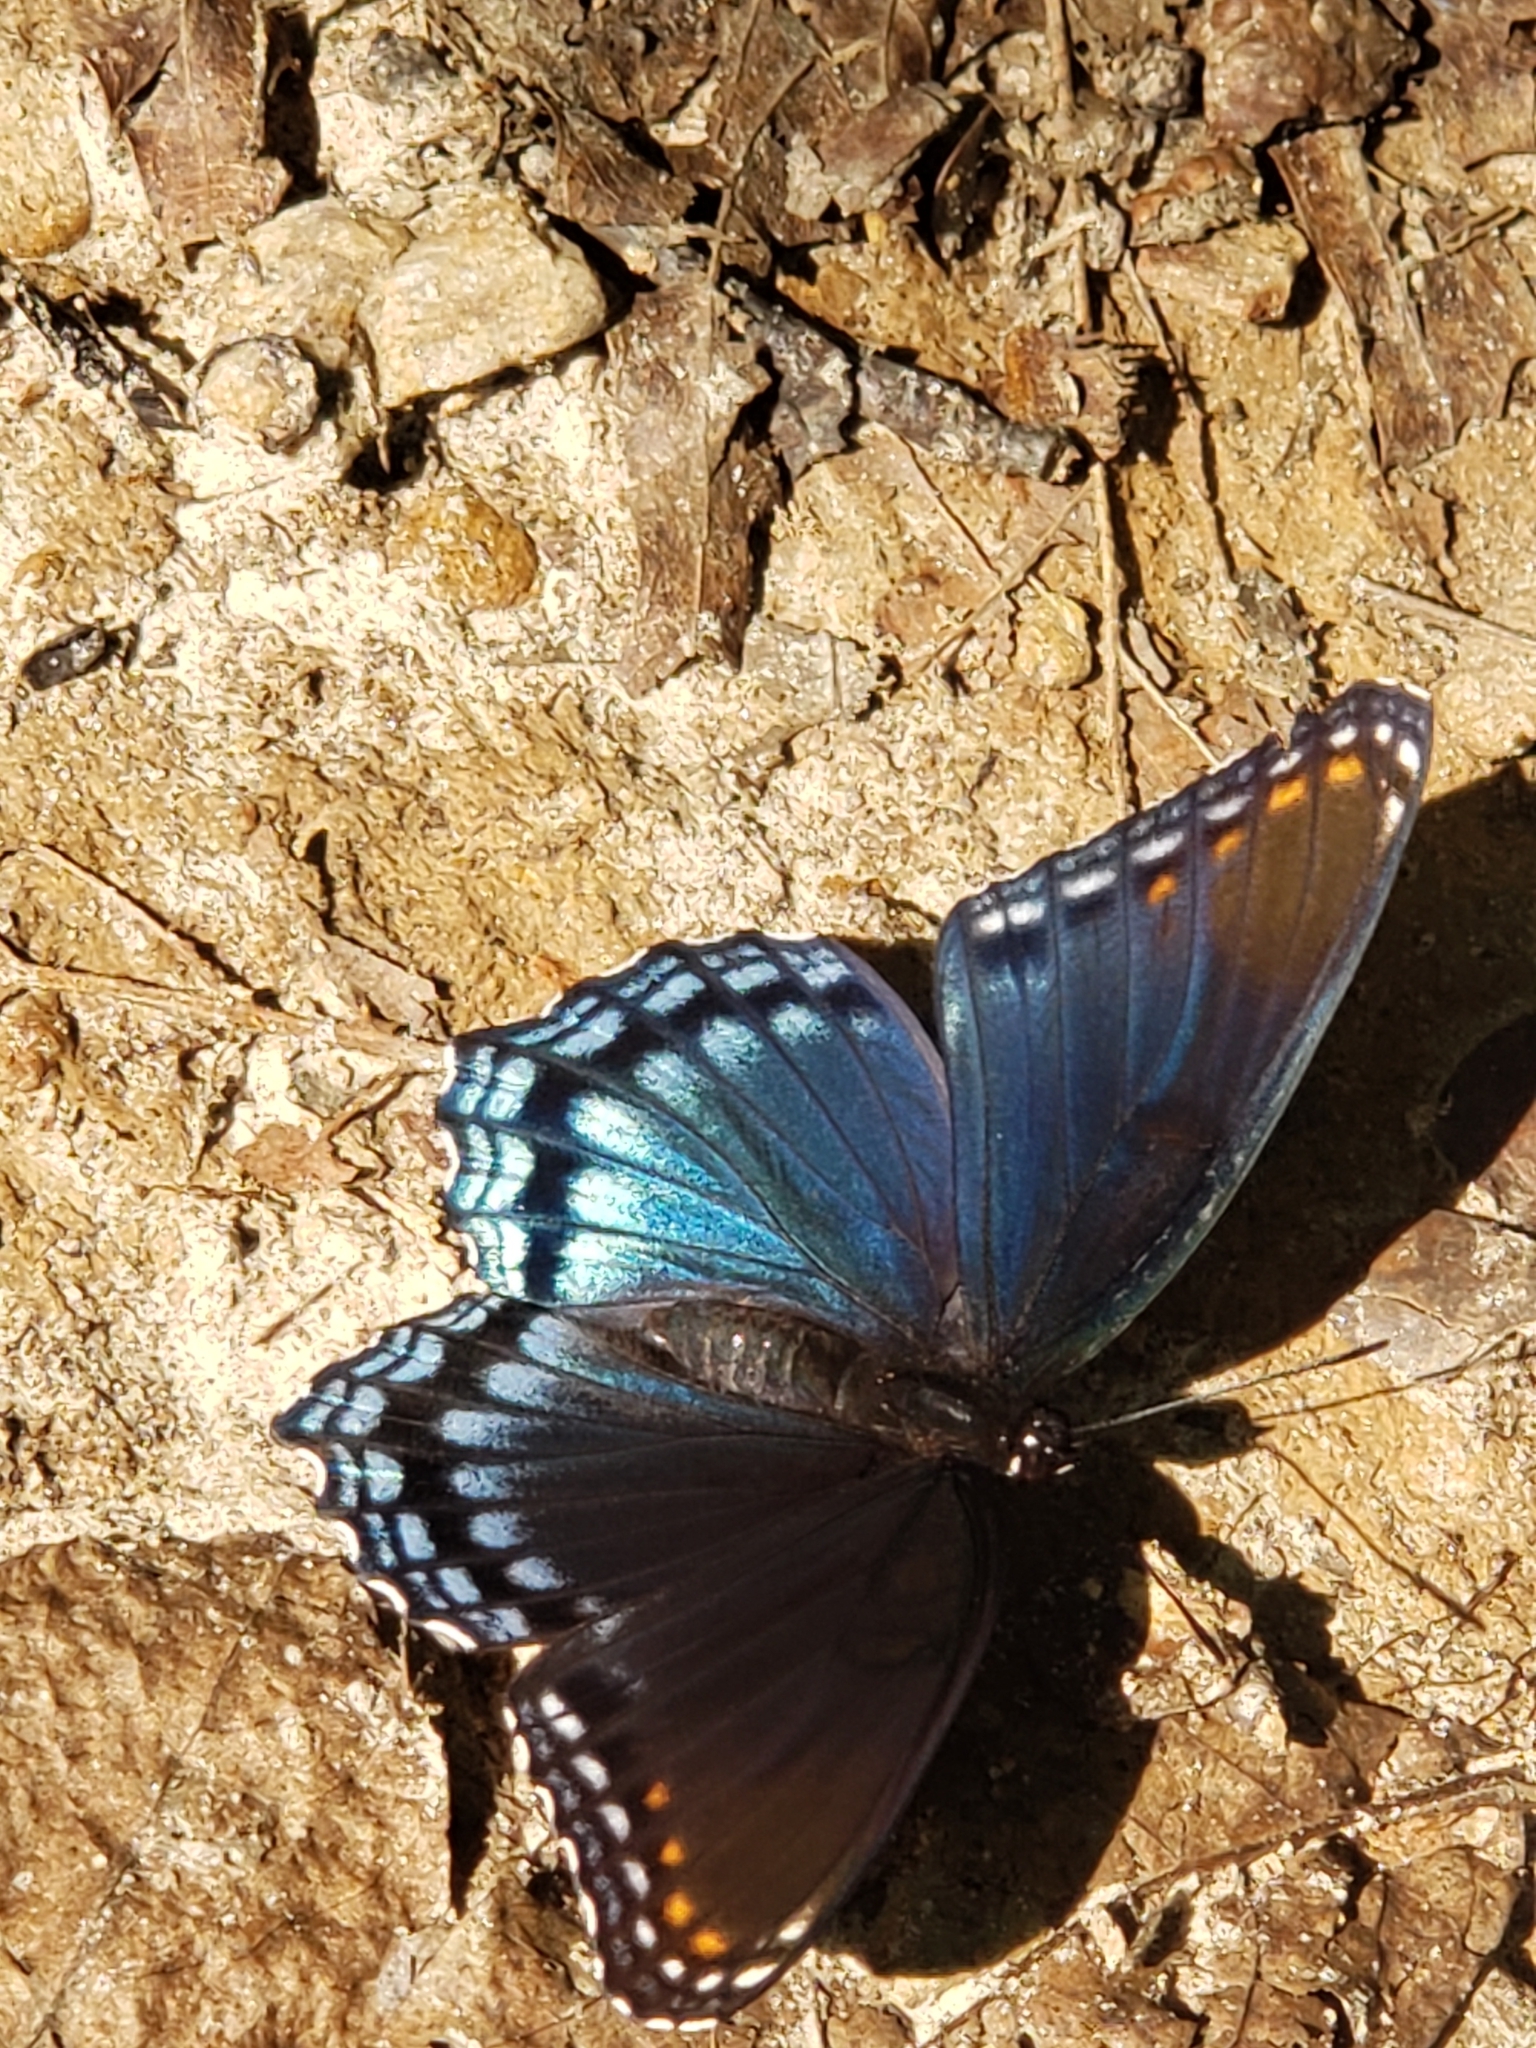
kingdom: Animalia
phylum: Arthropoda
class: Insecta
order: Lepidoptera
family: Nymphalidae
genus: Limenitis
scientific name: Limenitis astyanax
